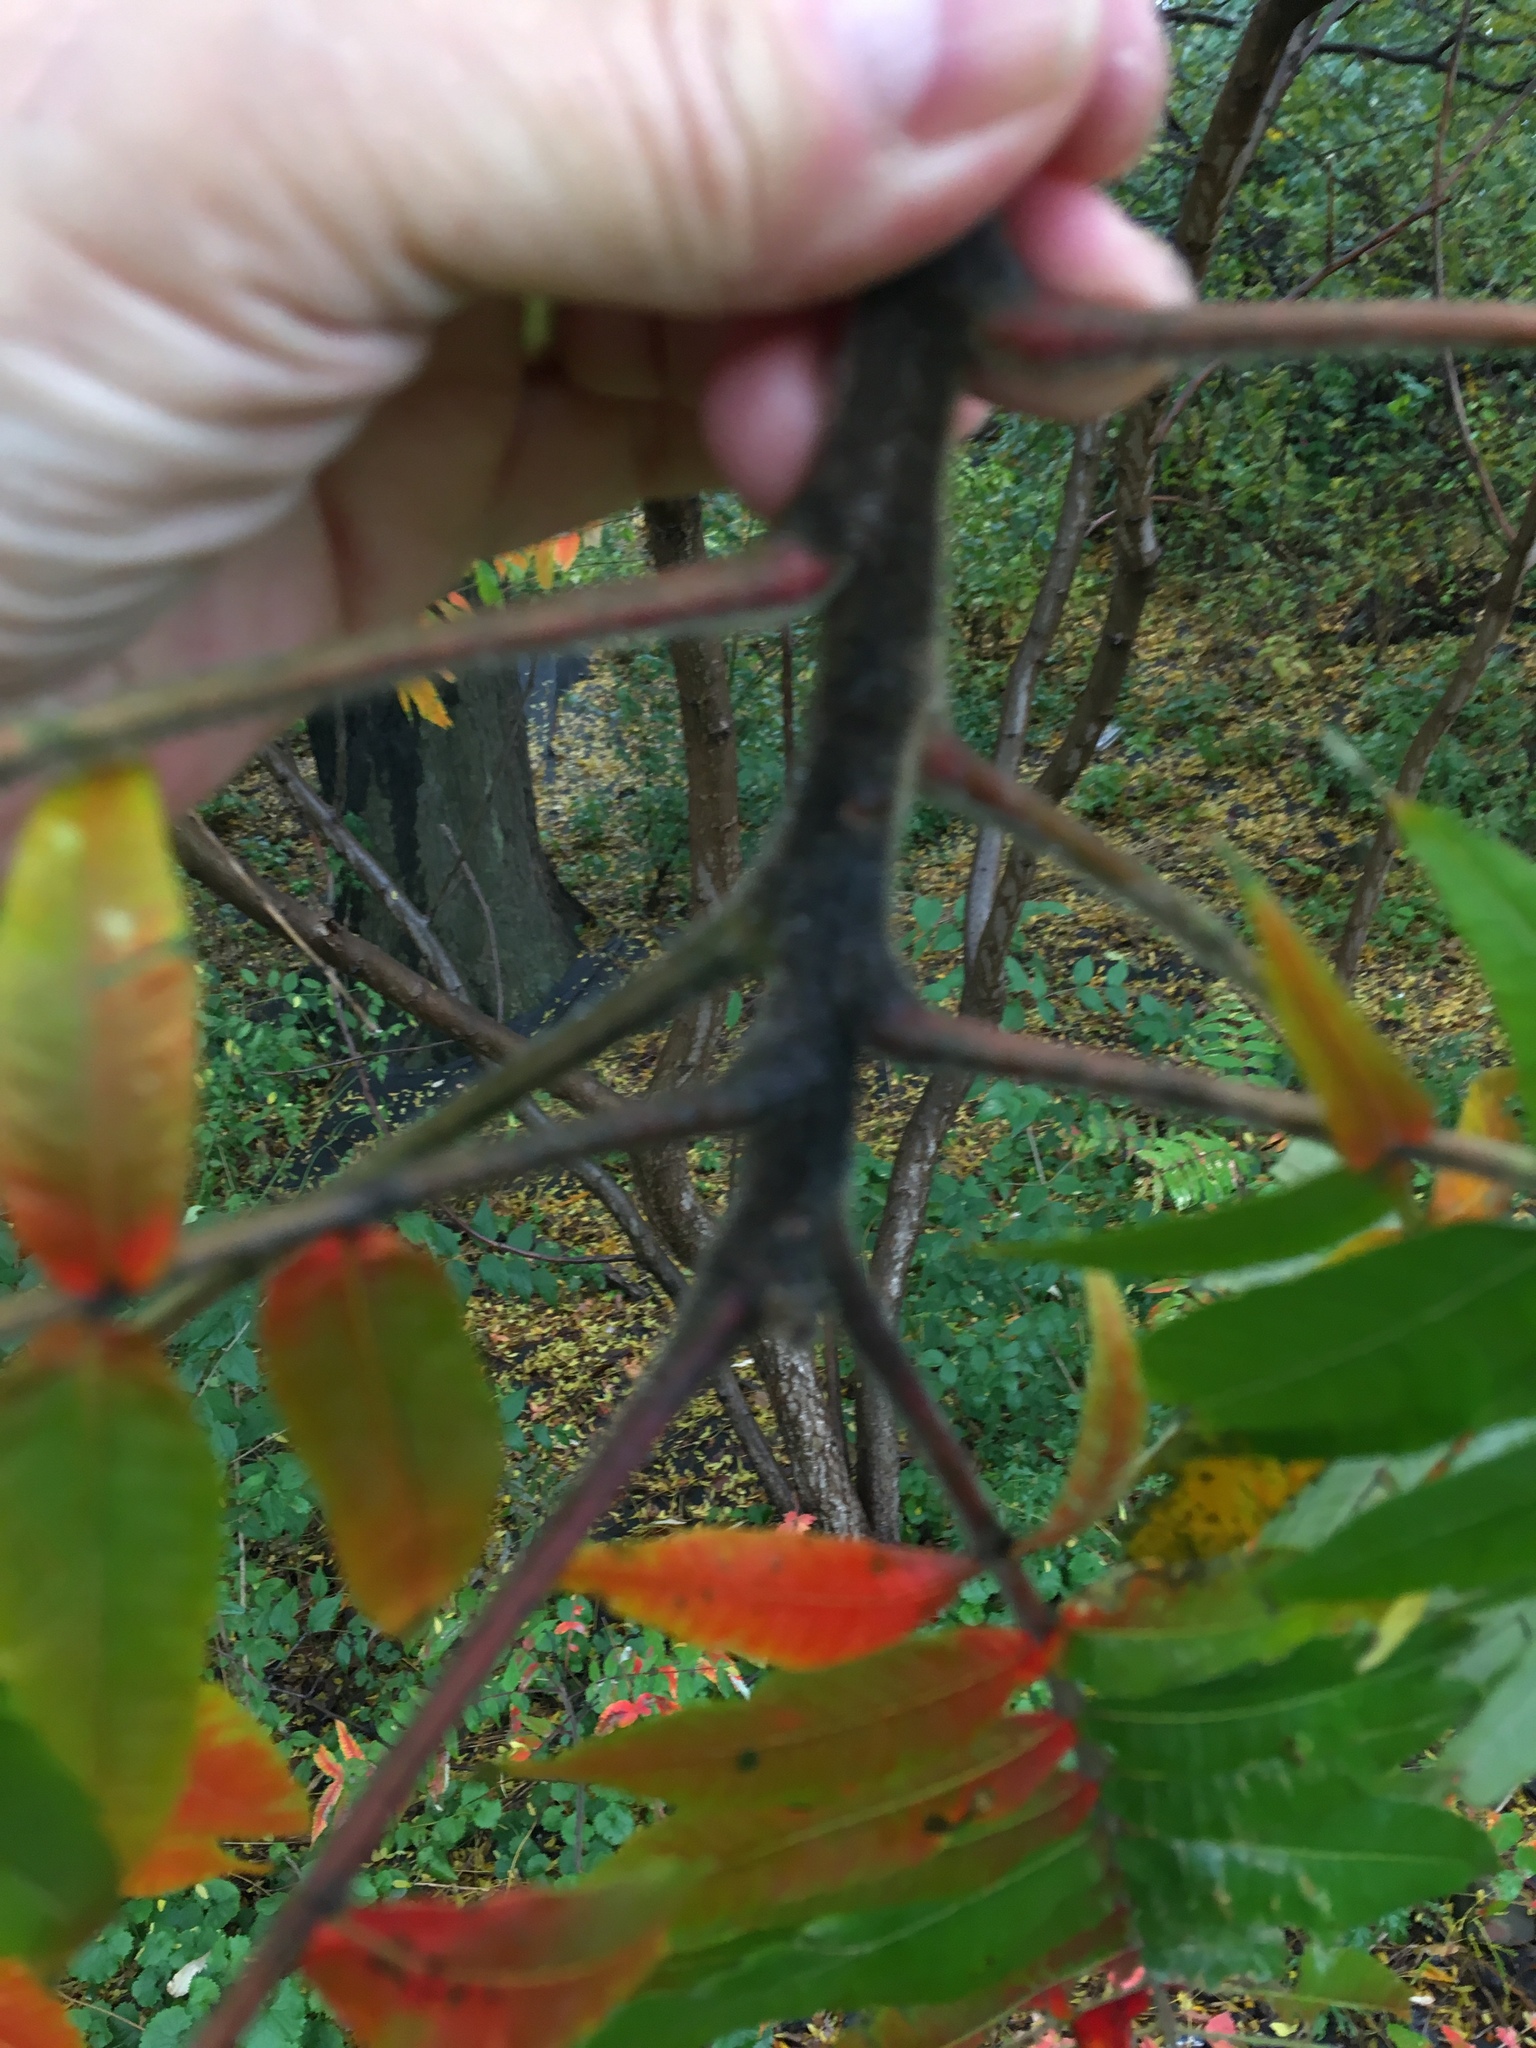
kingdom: Plantae
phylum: Tracheophyta
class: Magnoliopsida
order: Sapindales
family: Anacardiaceae
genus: Rhus
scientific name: Rhus typhina
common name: Staghorn sumac
